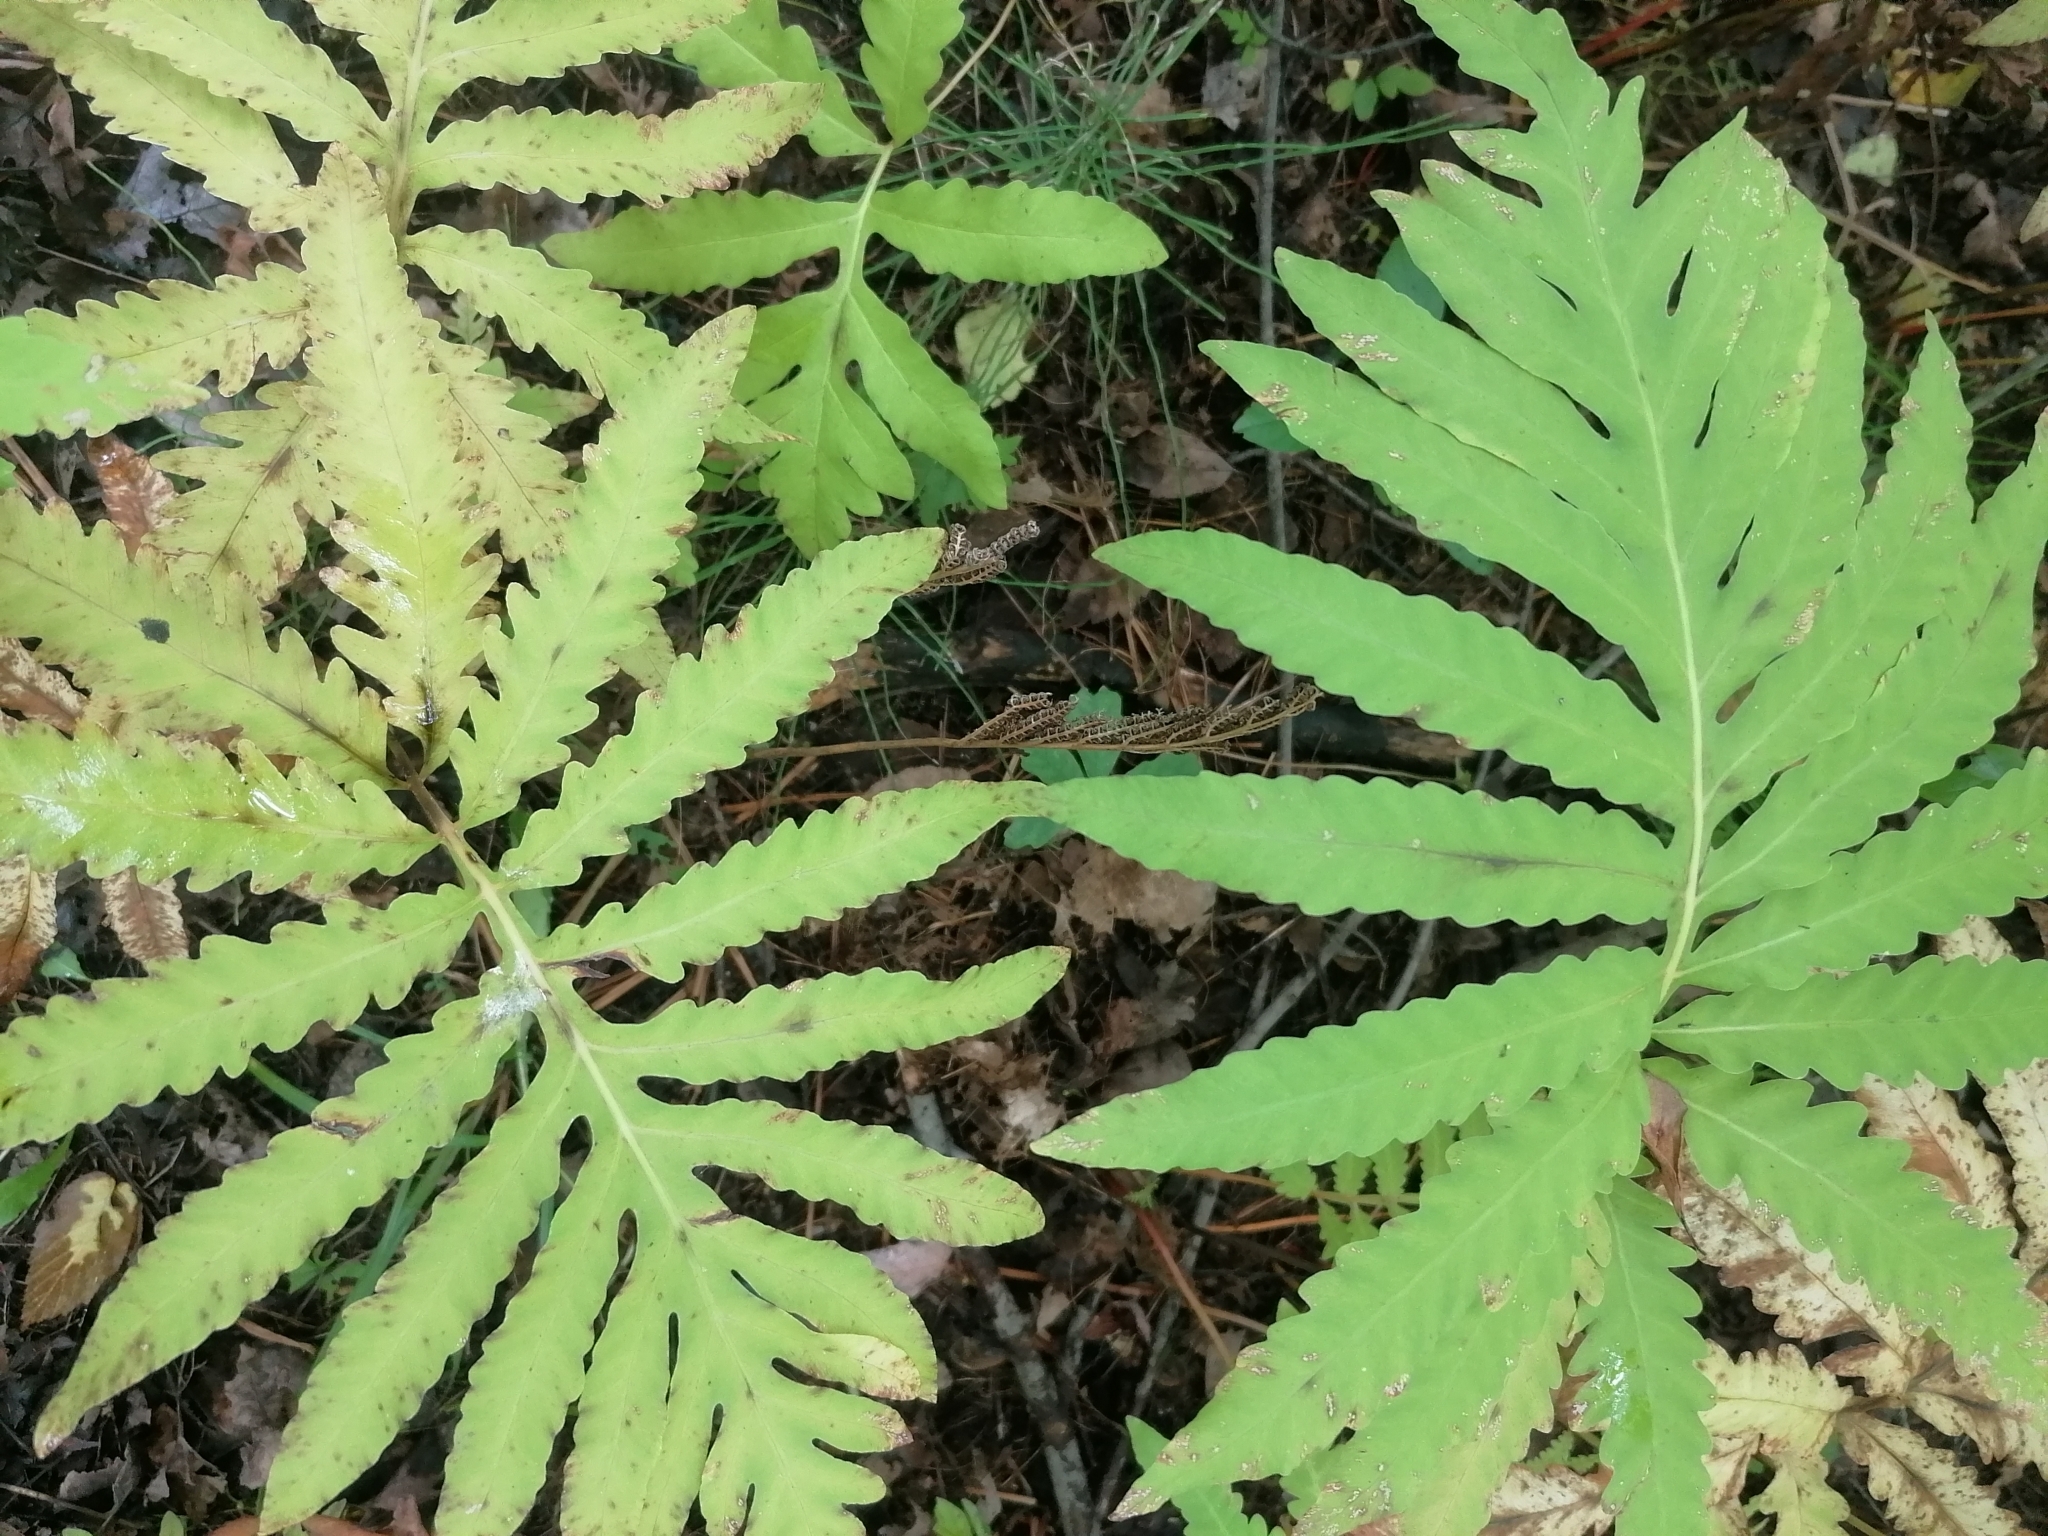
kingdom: Plantae
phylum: Tracheophyta
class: Polypodiopsida
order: Polypodiales
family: Onocleaceae
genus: Onoclea
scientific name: Onoclea sensibilis
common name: Sensitive fern
